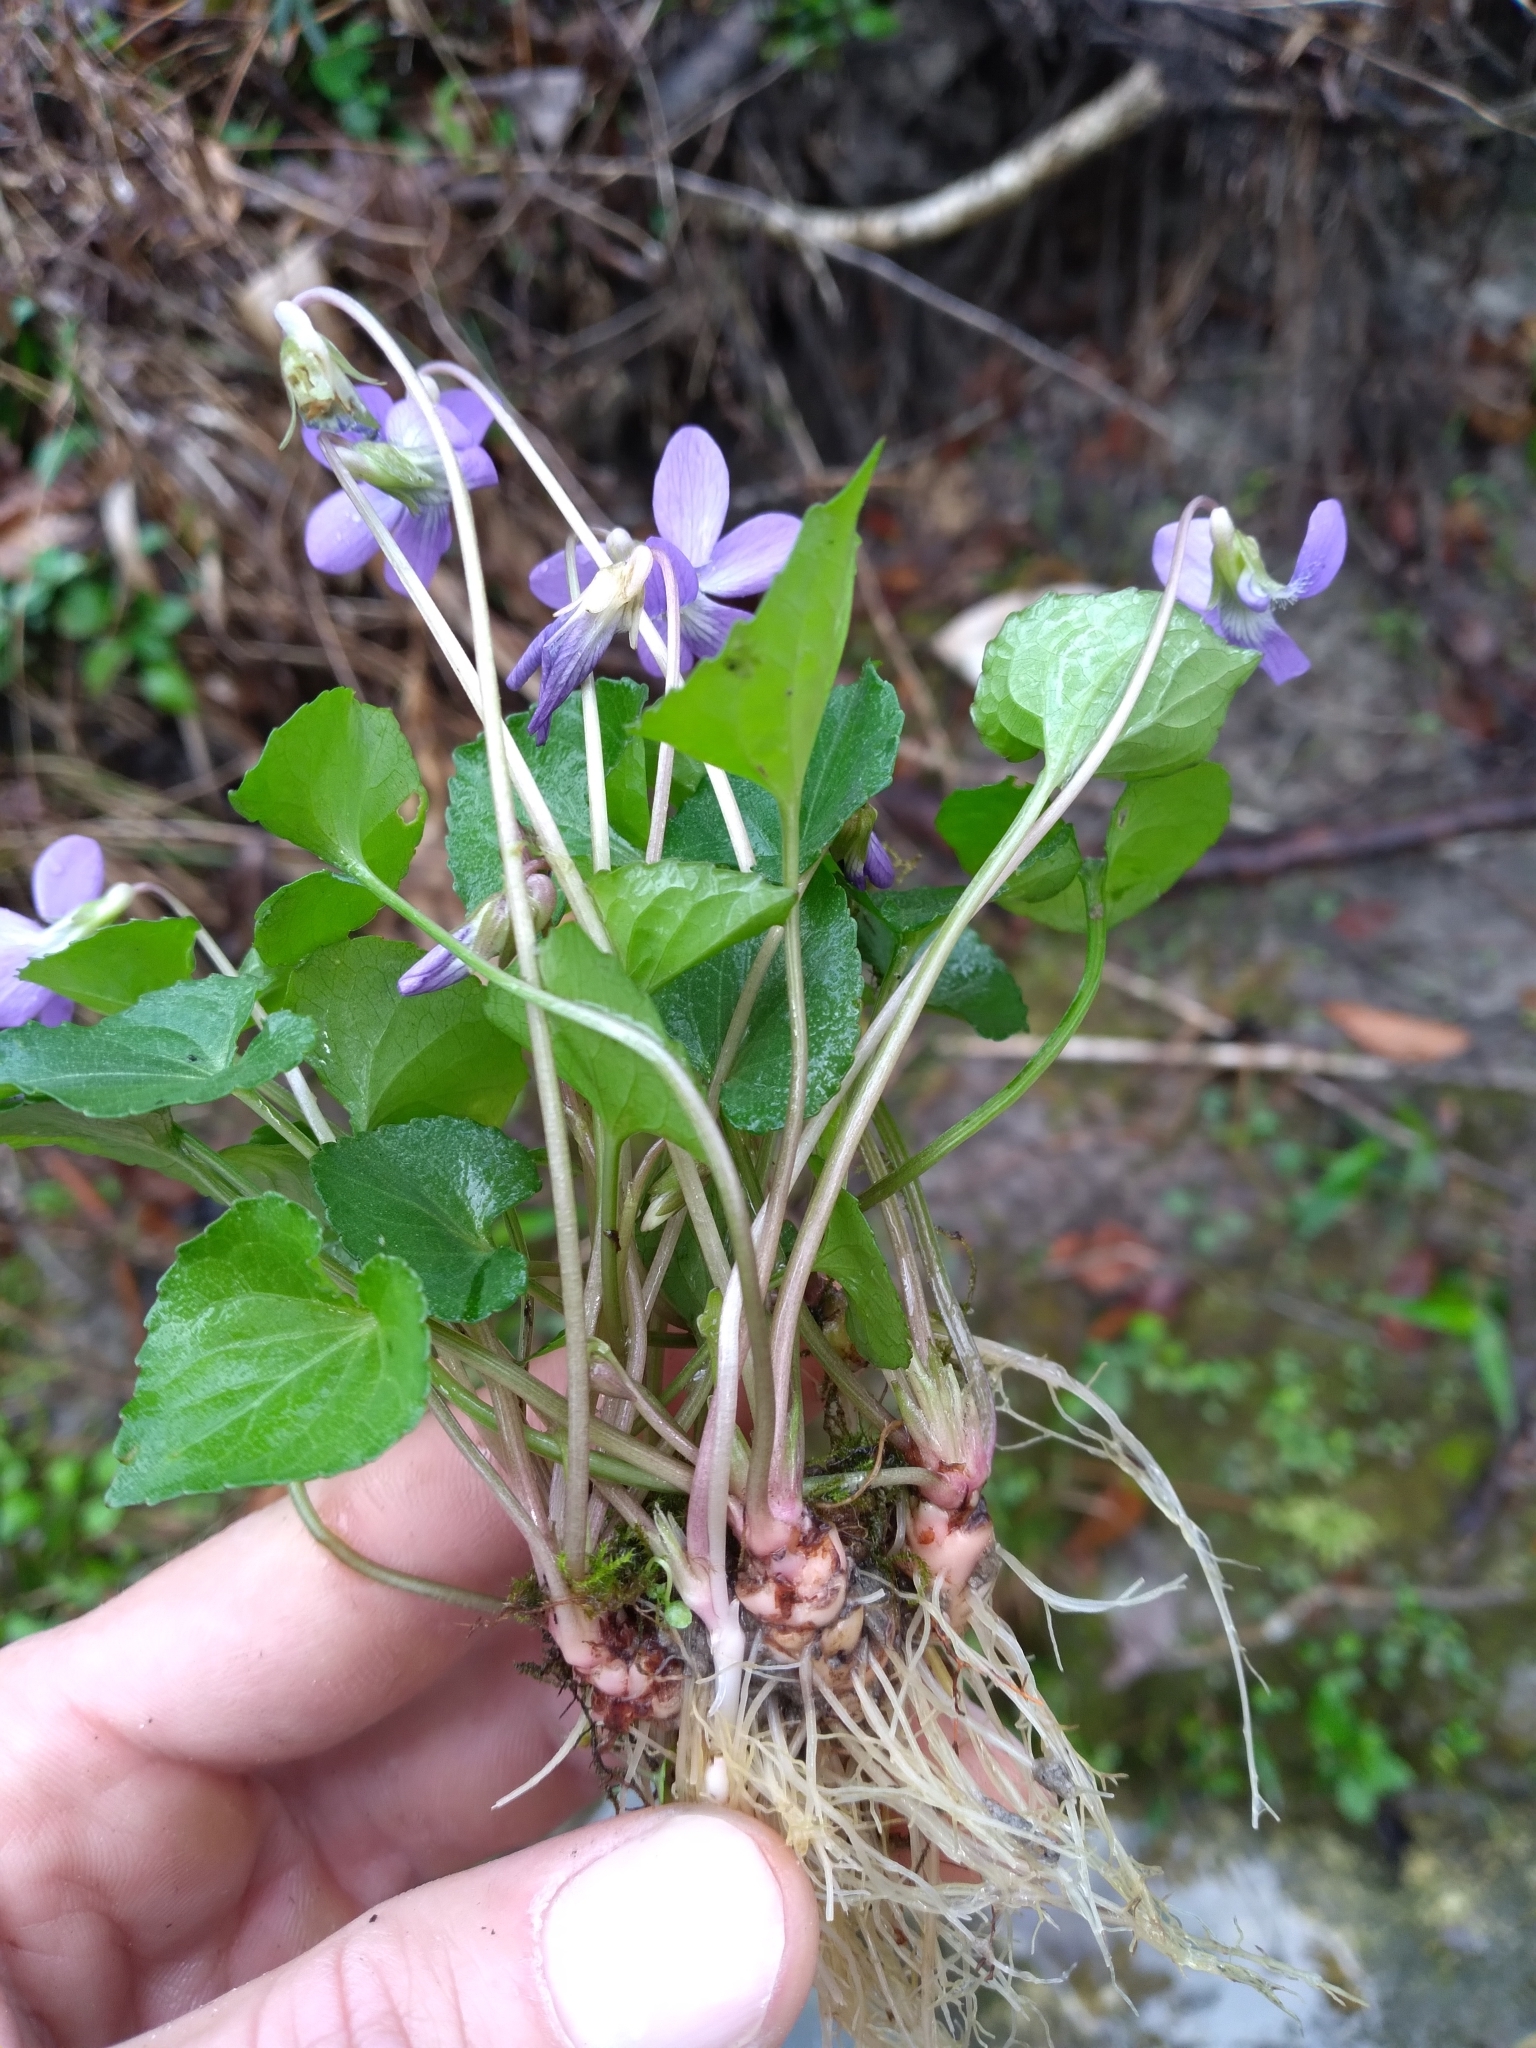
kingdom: Plantae
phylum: Tracheophyta
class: Magnoliopsida
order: Malpighiales
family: Violaceae
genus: Viola
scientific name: Viola sororia
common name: Dooryard violet
